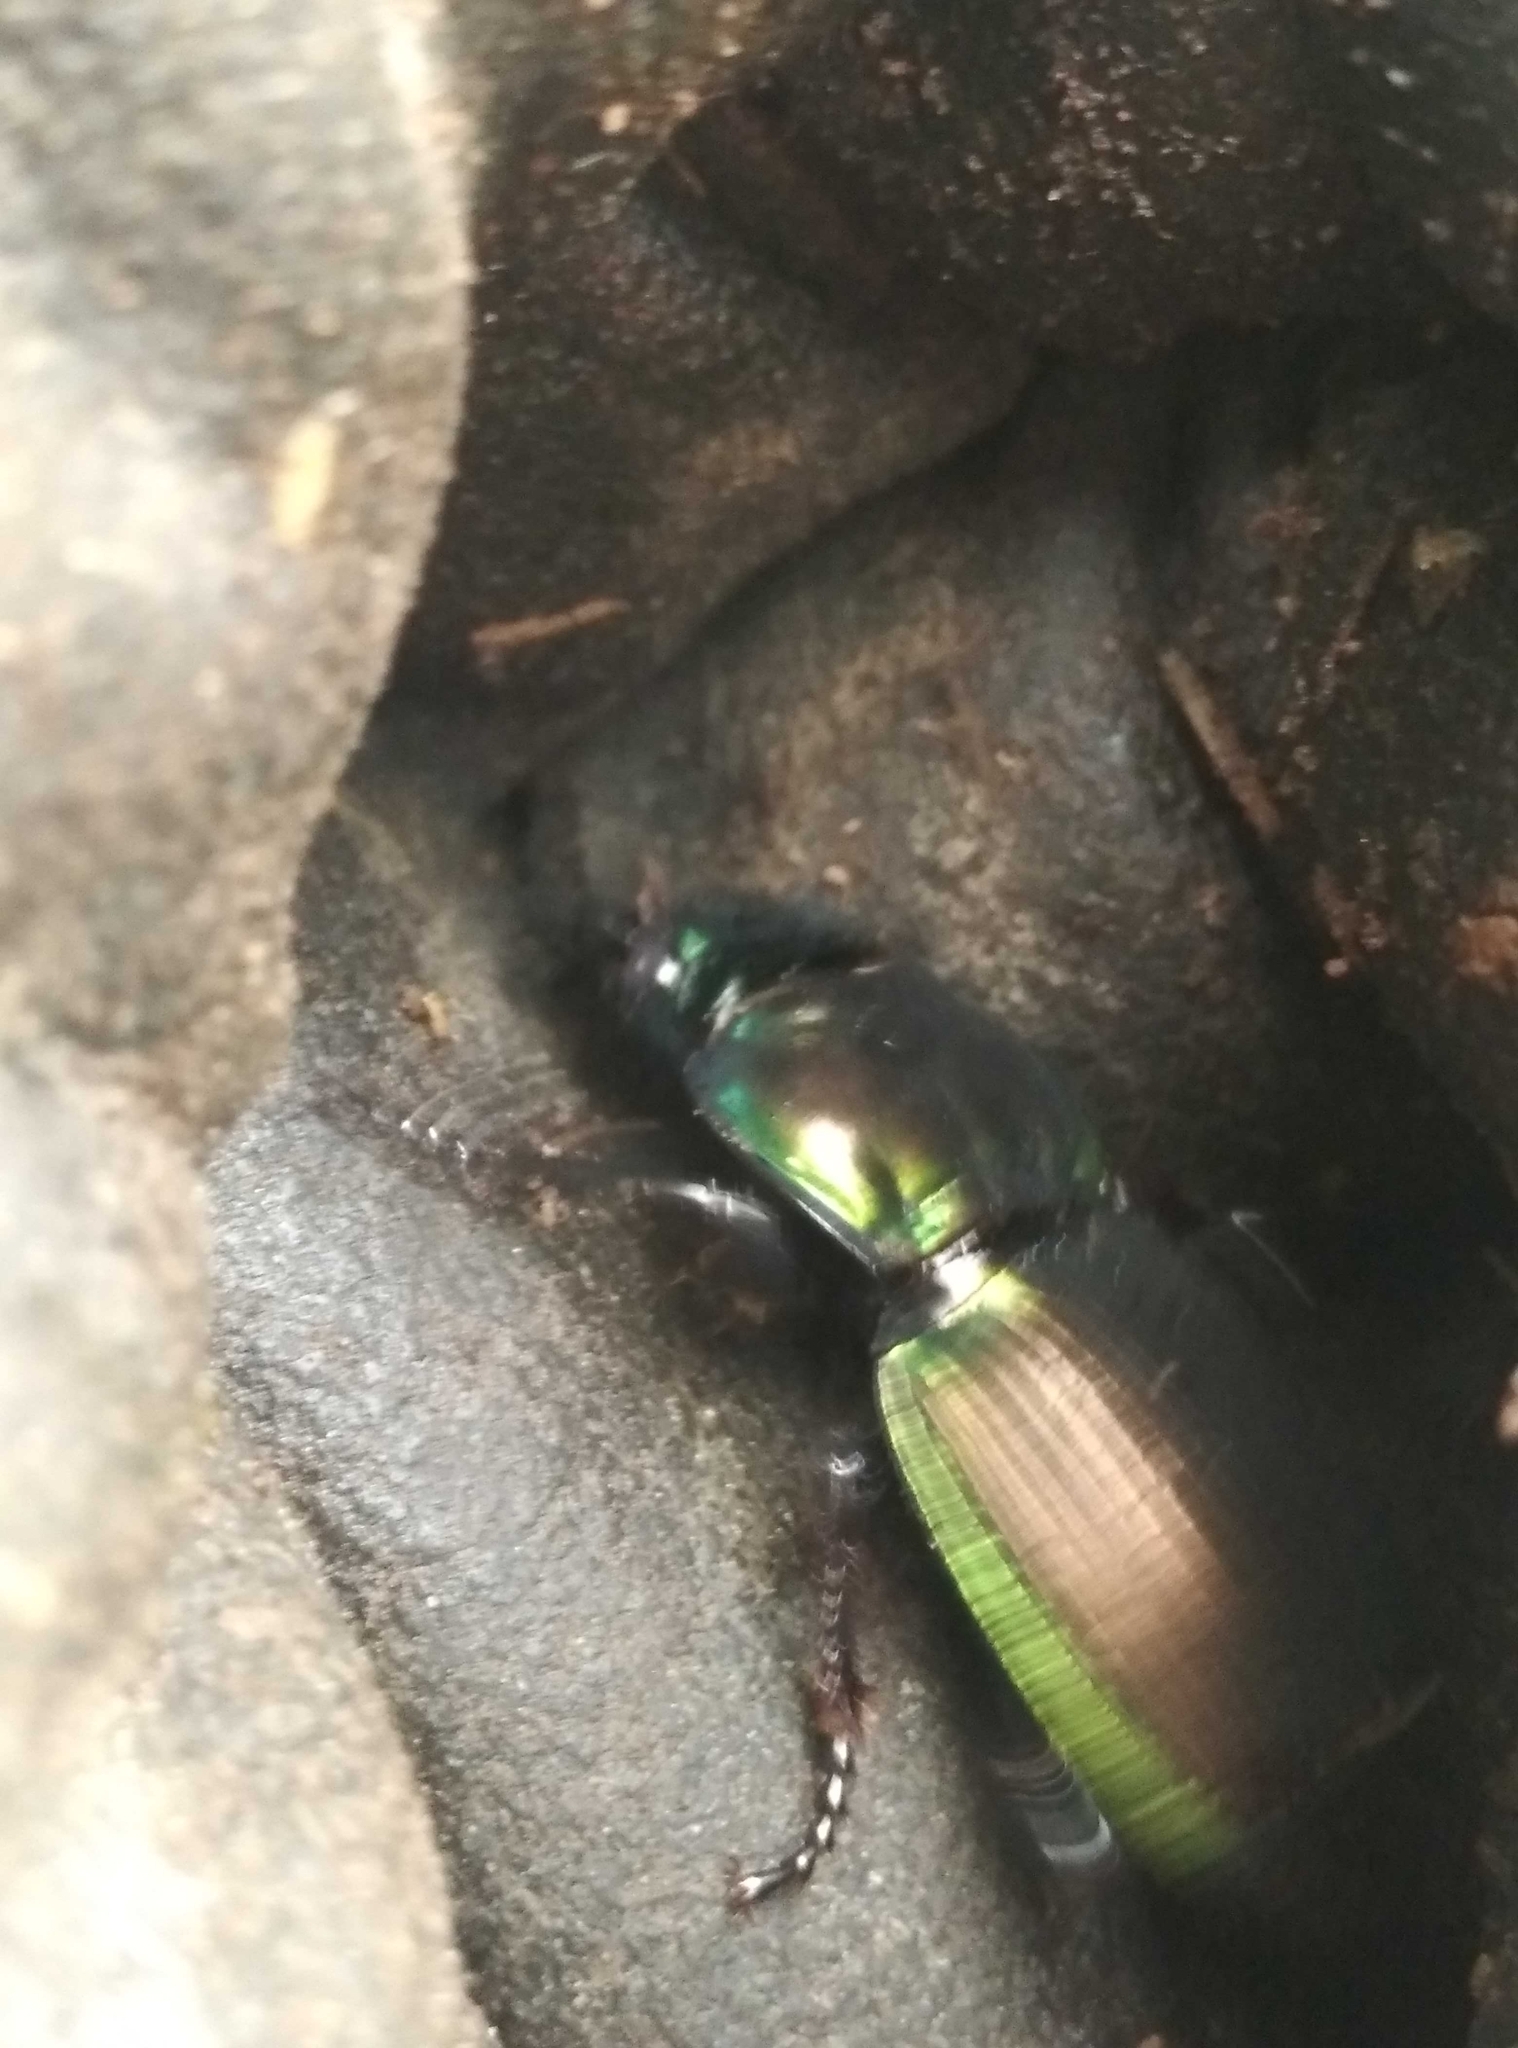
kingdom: Animalia
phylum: Arthropoda
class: Insecta
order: Coleoptera
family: Carabidae
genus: Megadromus
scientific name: Megadromus antarcticus
